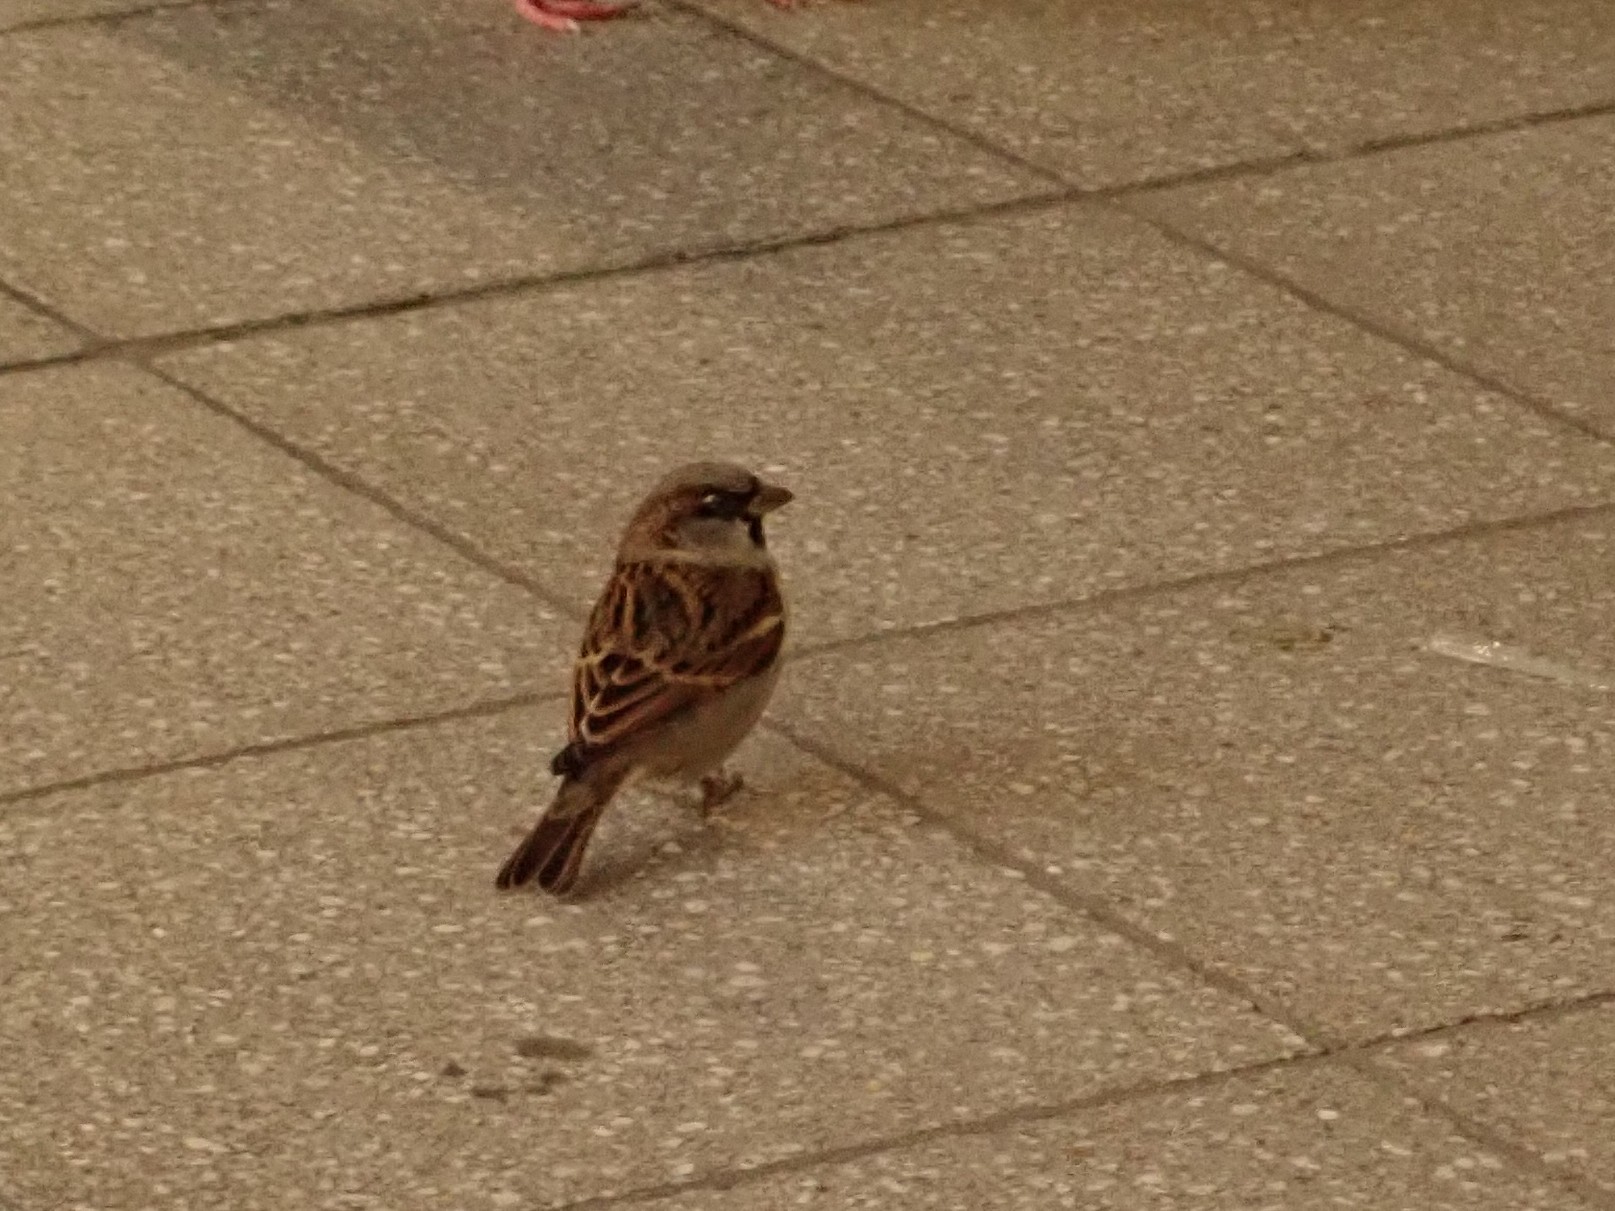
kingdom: Animalia
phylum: Chordata
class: Aves
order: Passeriformes
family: Passeridae
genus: Passer
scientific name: Passer domesticus
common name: House sparrow
